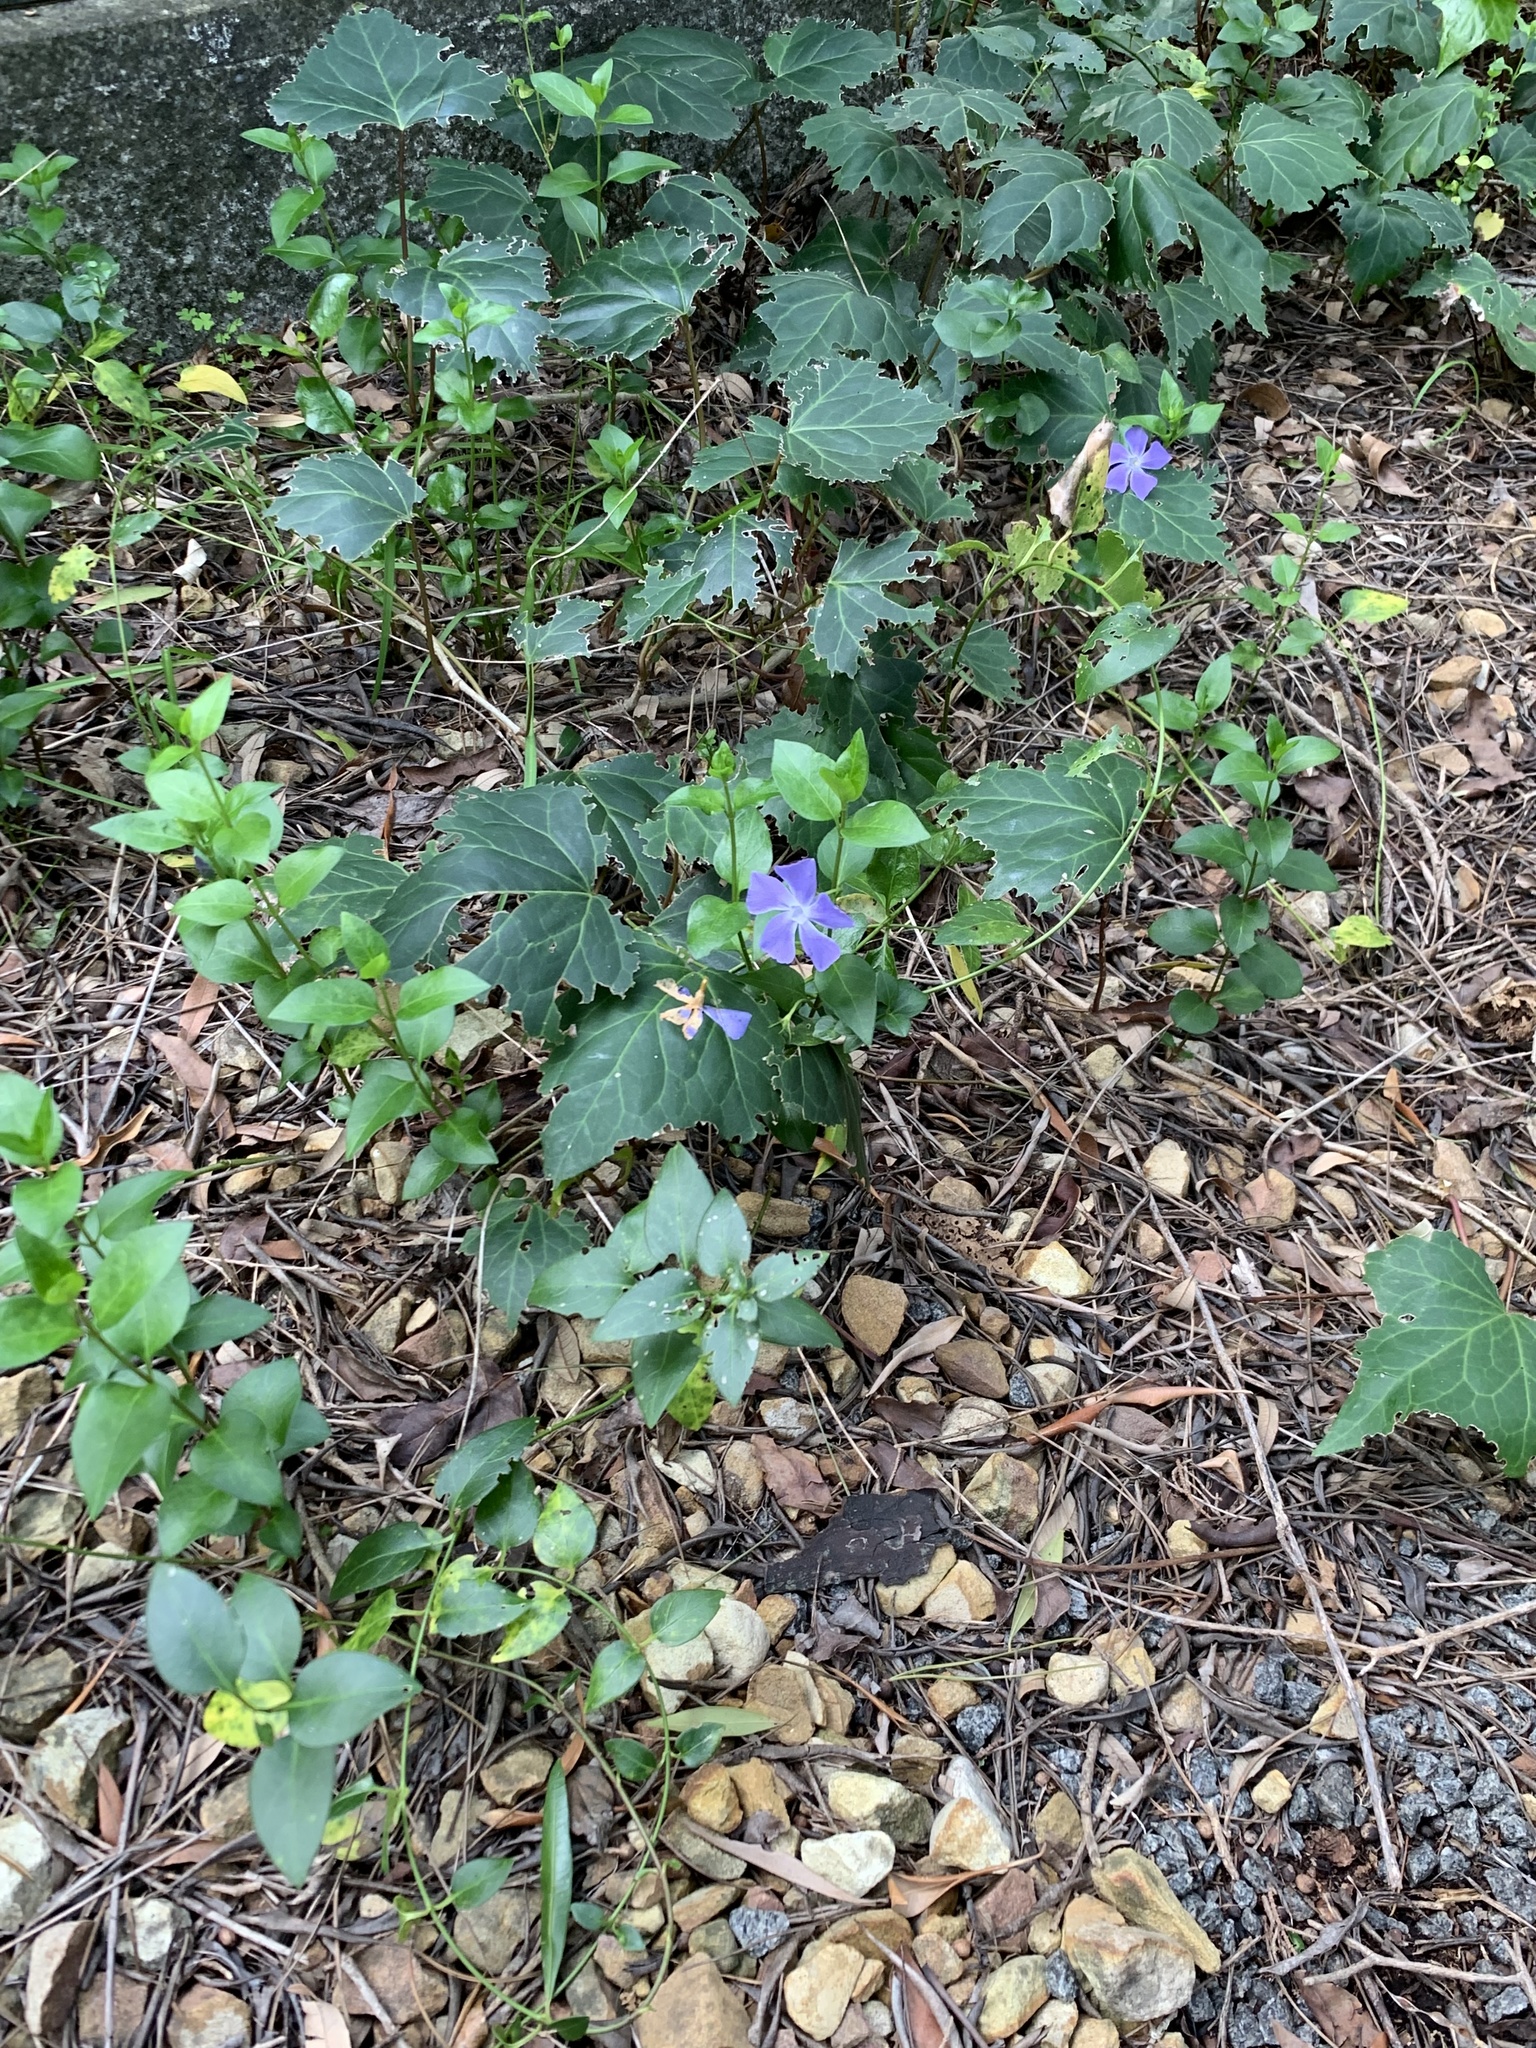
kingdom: Plantae
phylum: Tracheophyta
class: Magnoliopsida
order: Gentianales
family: Apocynaceae
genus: Vinca
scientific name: Vinca major
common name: Greater periwinkle
